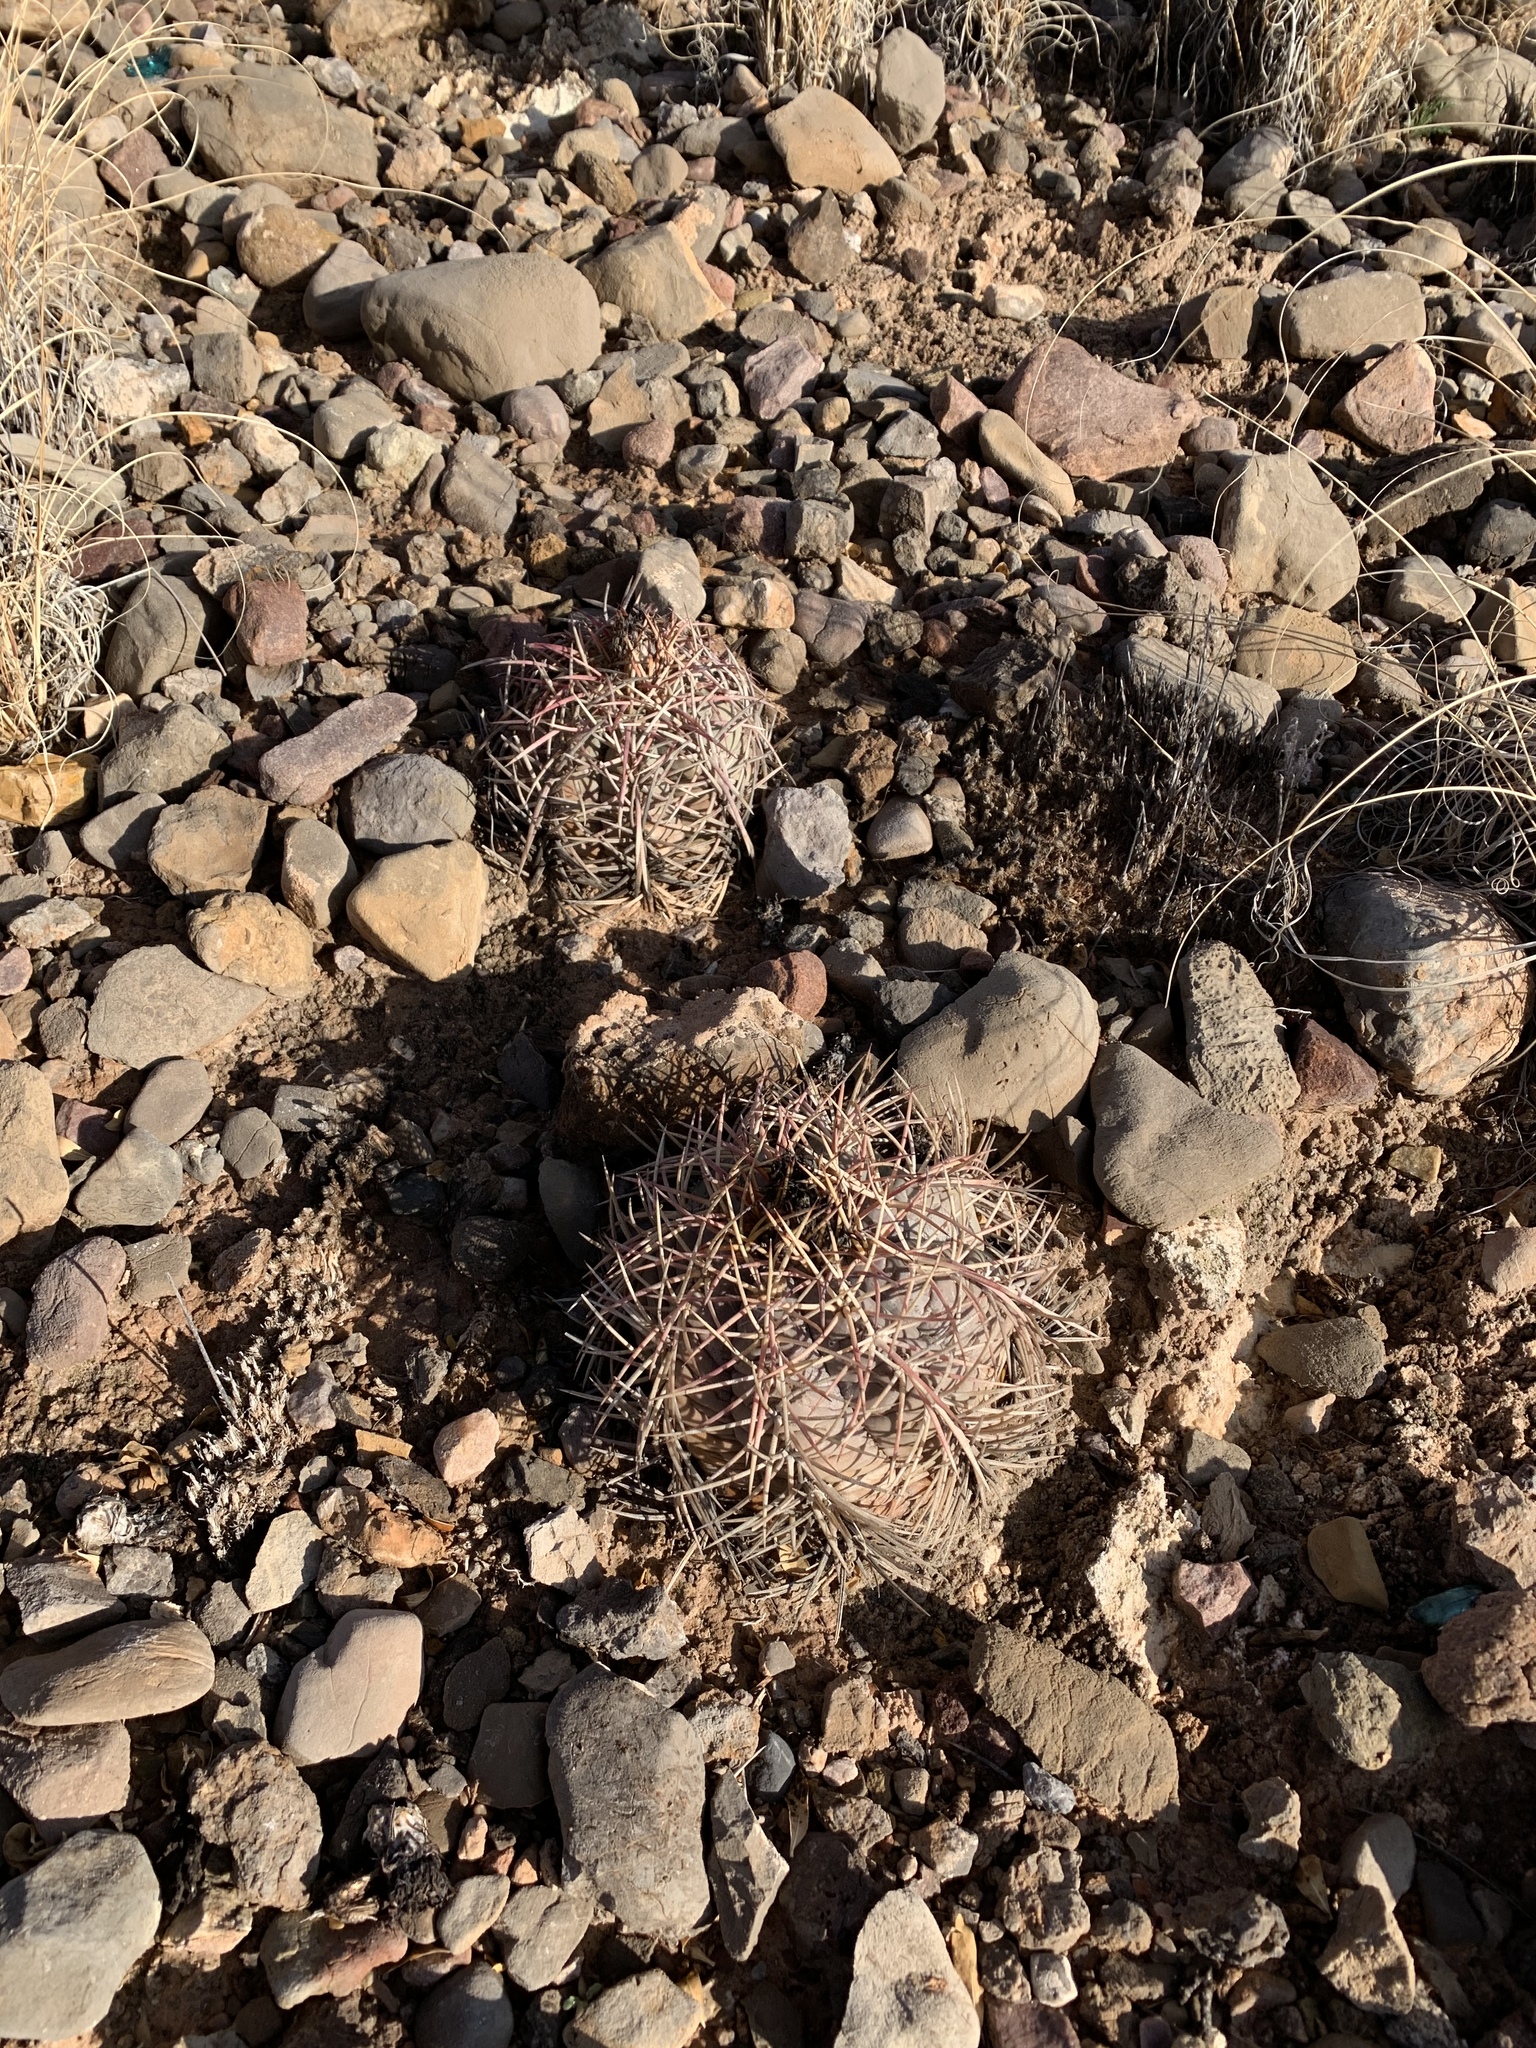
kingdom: Plantae
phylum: Tracheophyta
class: Magnoliopsida
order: Caryophyllales
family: Cactaceae
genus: Echinocactus
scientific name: Echinocactus horizonthalonius
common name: Devilshead
